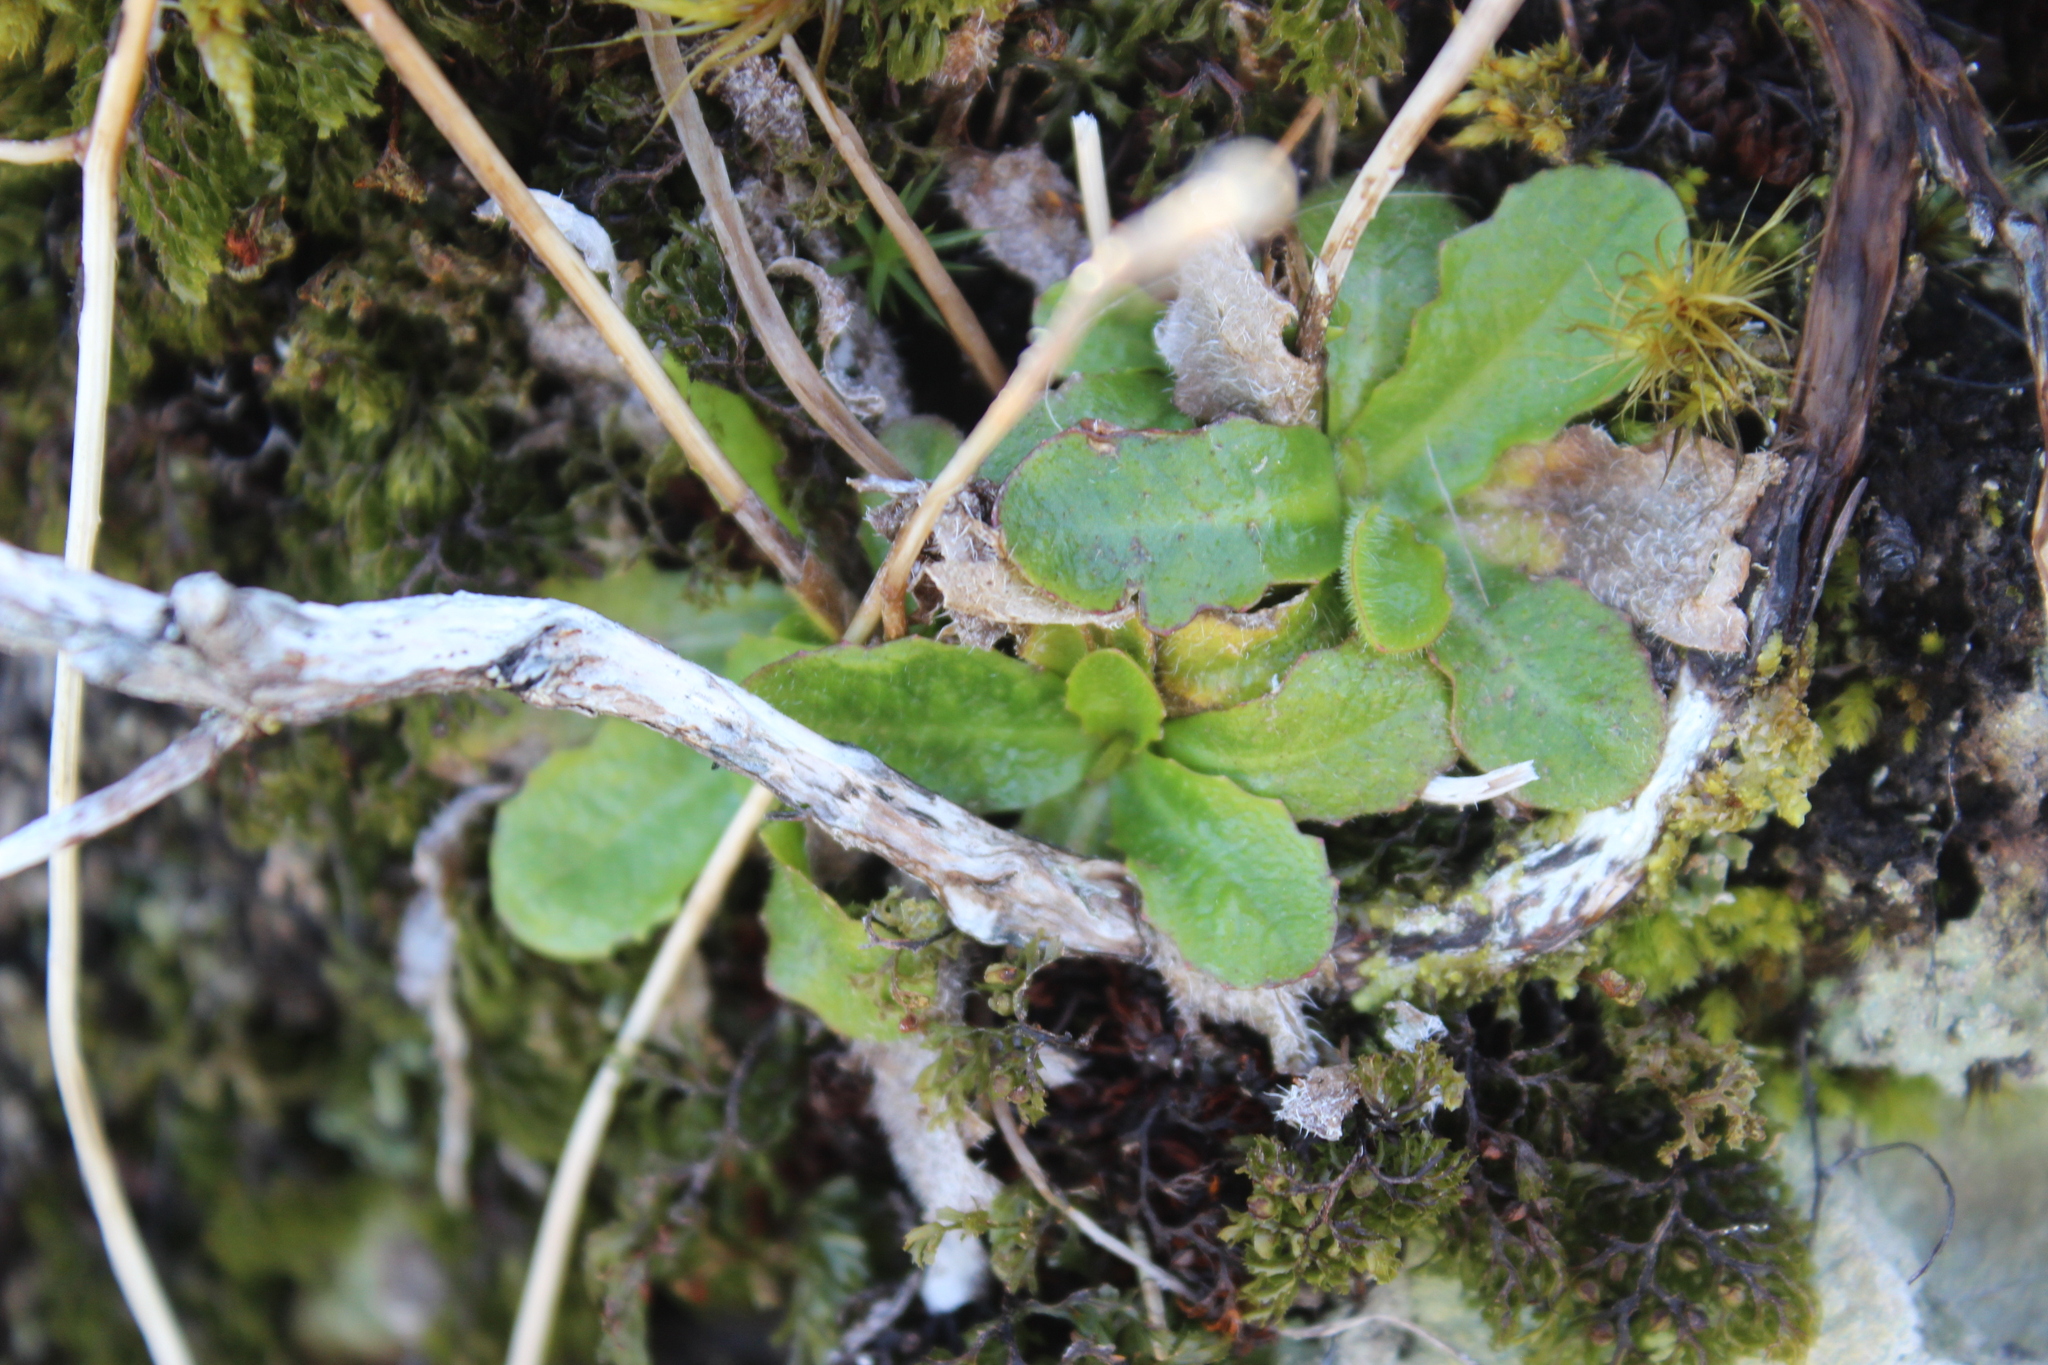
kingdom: Plantae
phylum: Tracheophyta
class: Magnoliopsida
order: Asterales
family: Asteraceae
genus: Hypochaeris
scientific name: Hypochaeris radicata
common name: Flatweed
